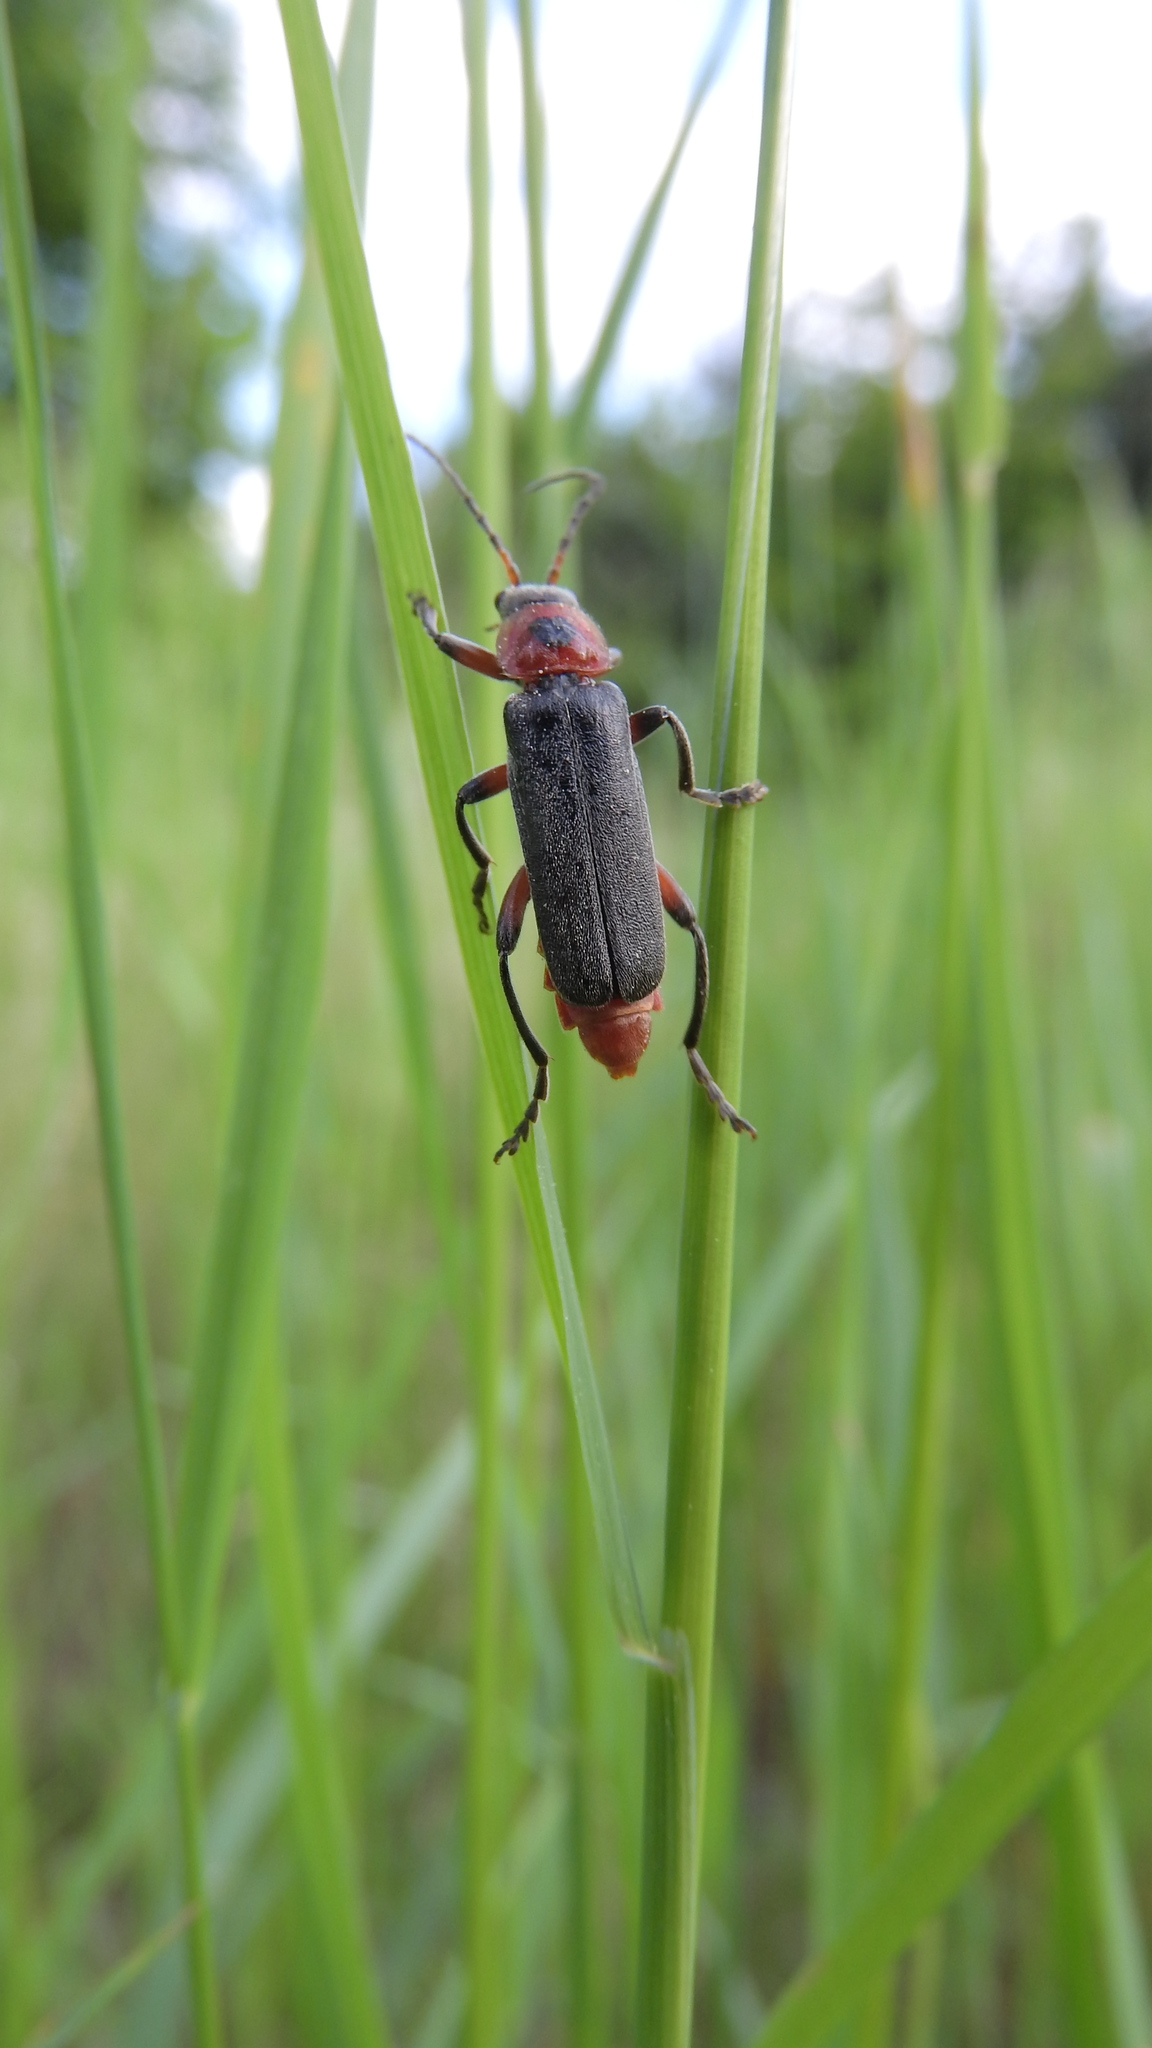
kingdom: Animalia
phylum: Arthropoda
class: Insecta
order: Coleoptera
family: Cantharidae
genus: Cantharis
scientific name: Cantharis rustica
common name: Soldier beetle
